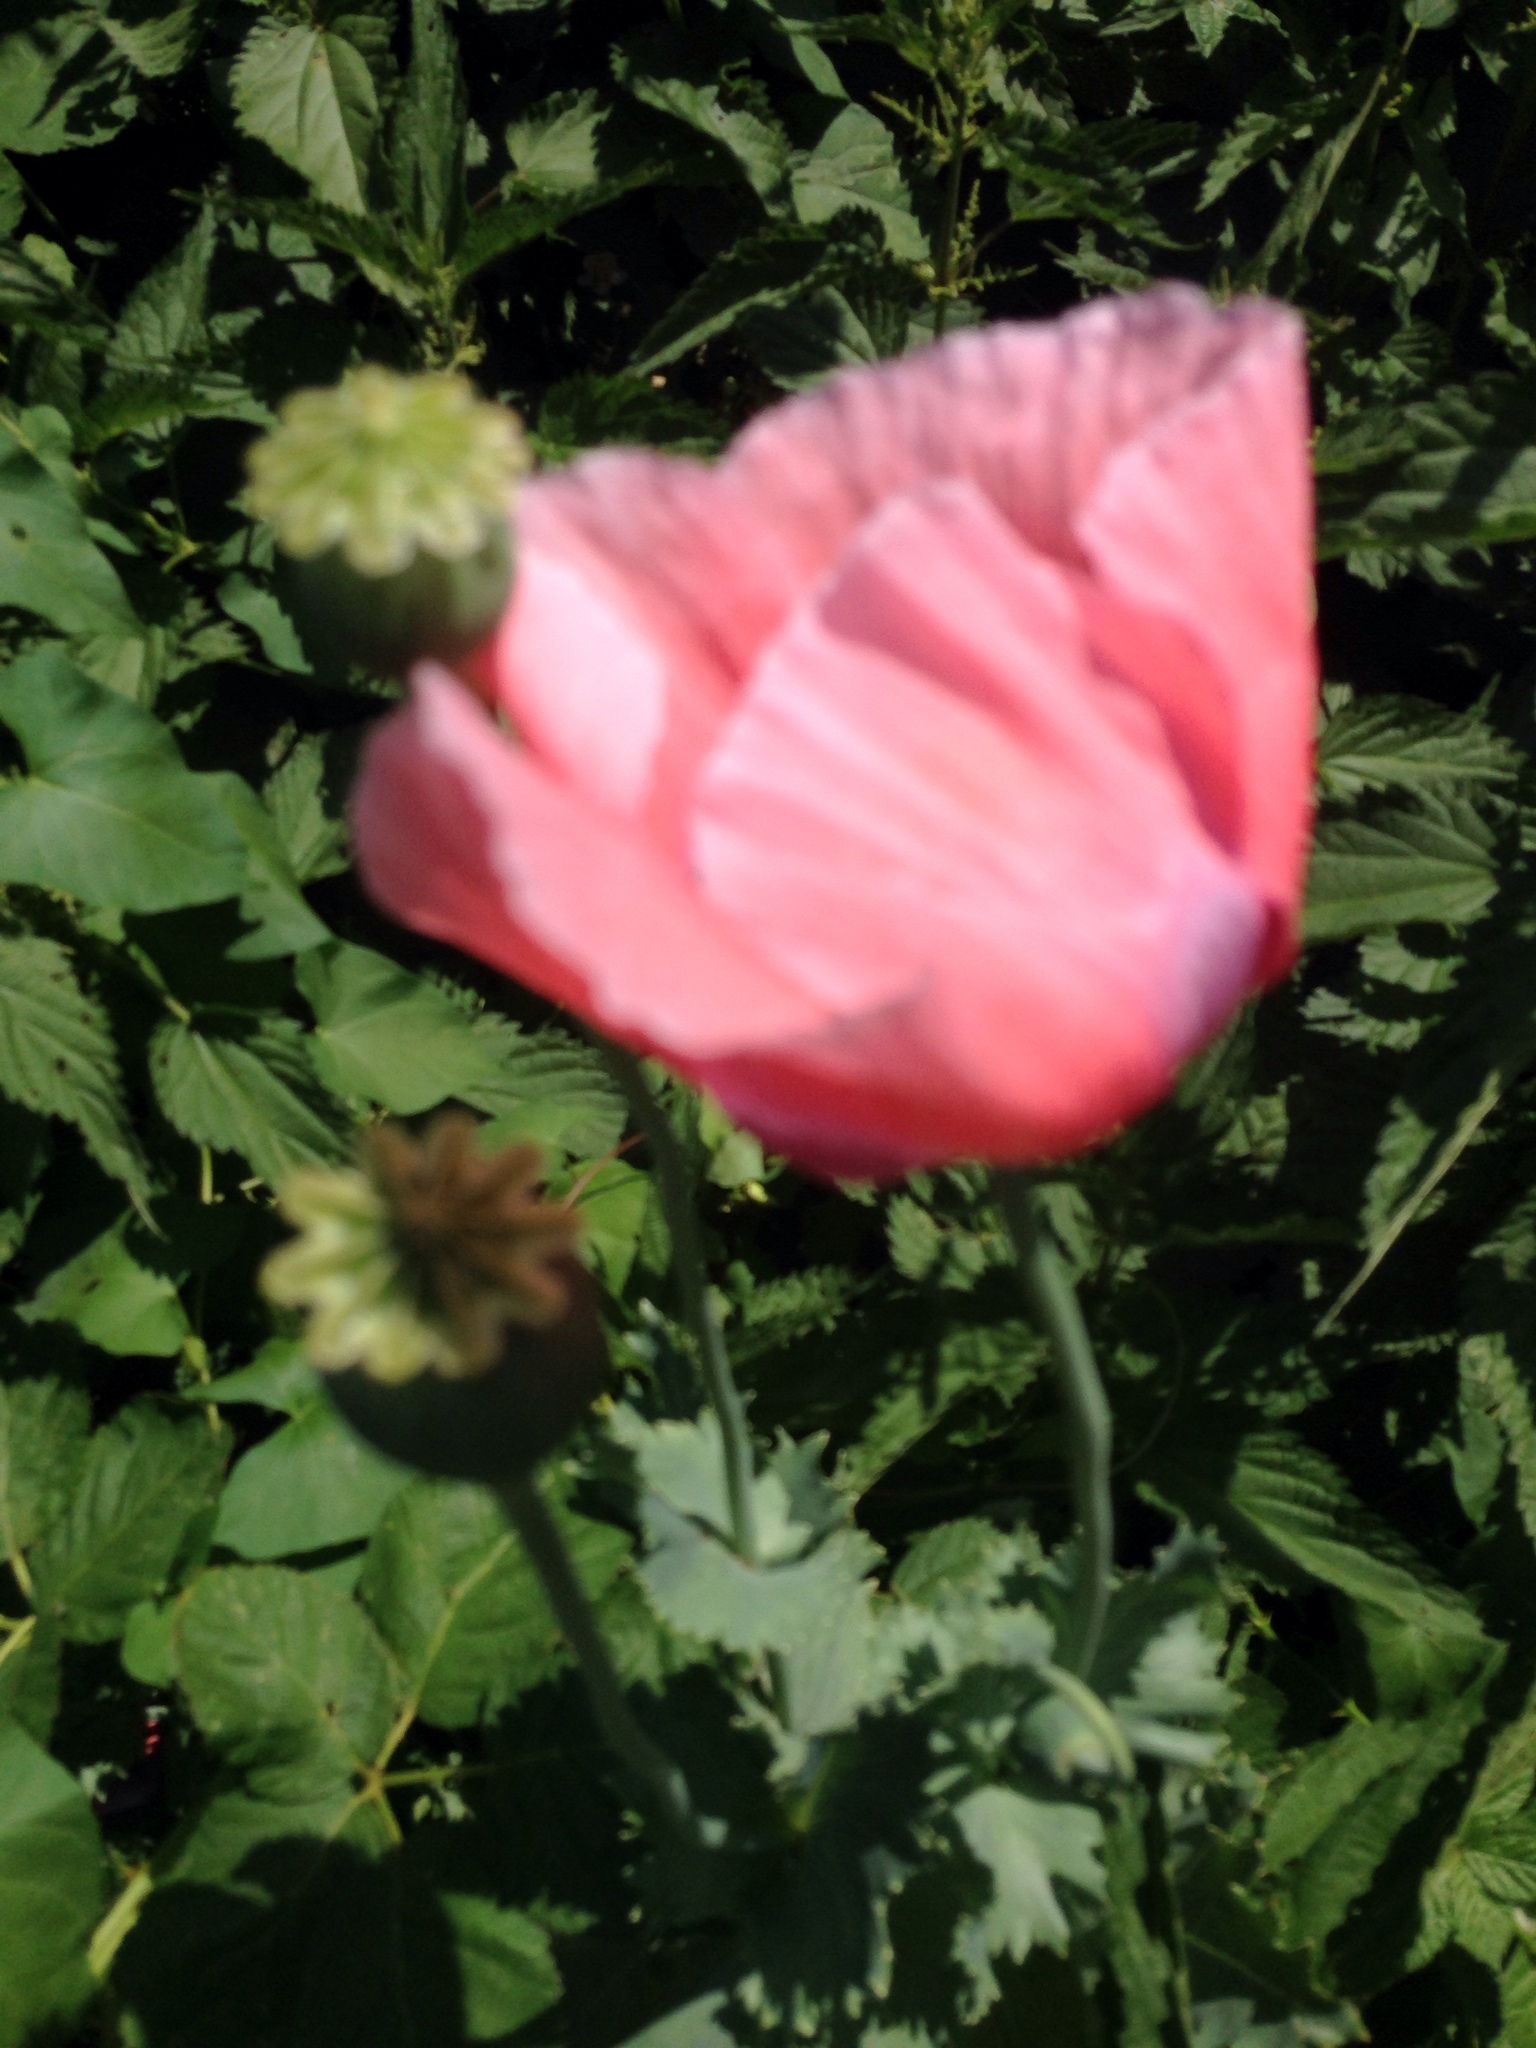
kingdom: Plantae
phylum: Tracheophyta
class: Magnoliopsida
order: Ranunculales
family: Papaveraceae
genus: Papaver
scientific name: Papaver somniferum
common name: Opium poppy
